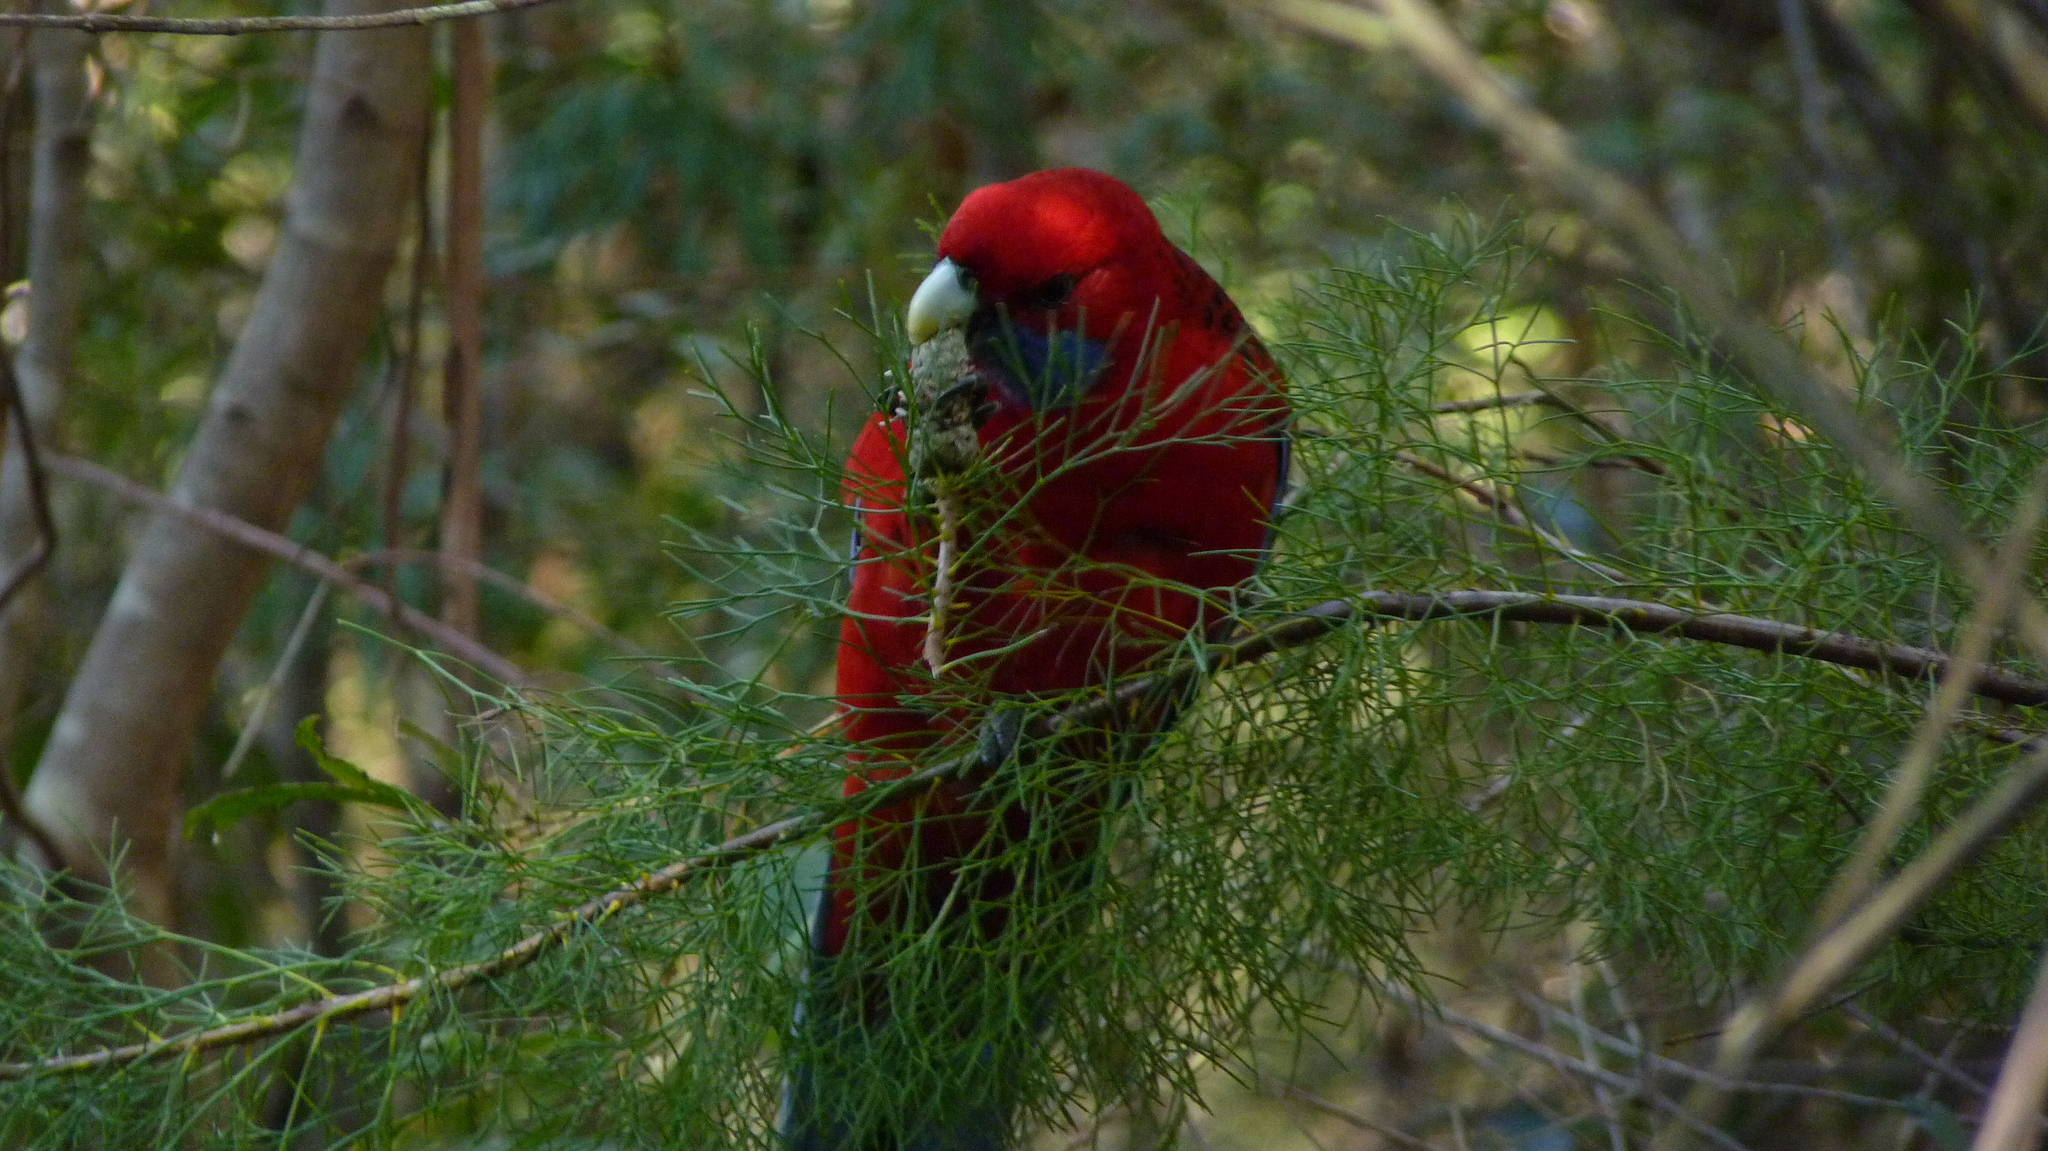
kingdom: Animalia
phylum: Chordata
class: Aves
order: Psittaciformes
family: Psittacidae
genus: Platycercus
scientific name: Platycercus elegans
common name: Crimson rosella
